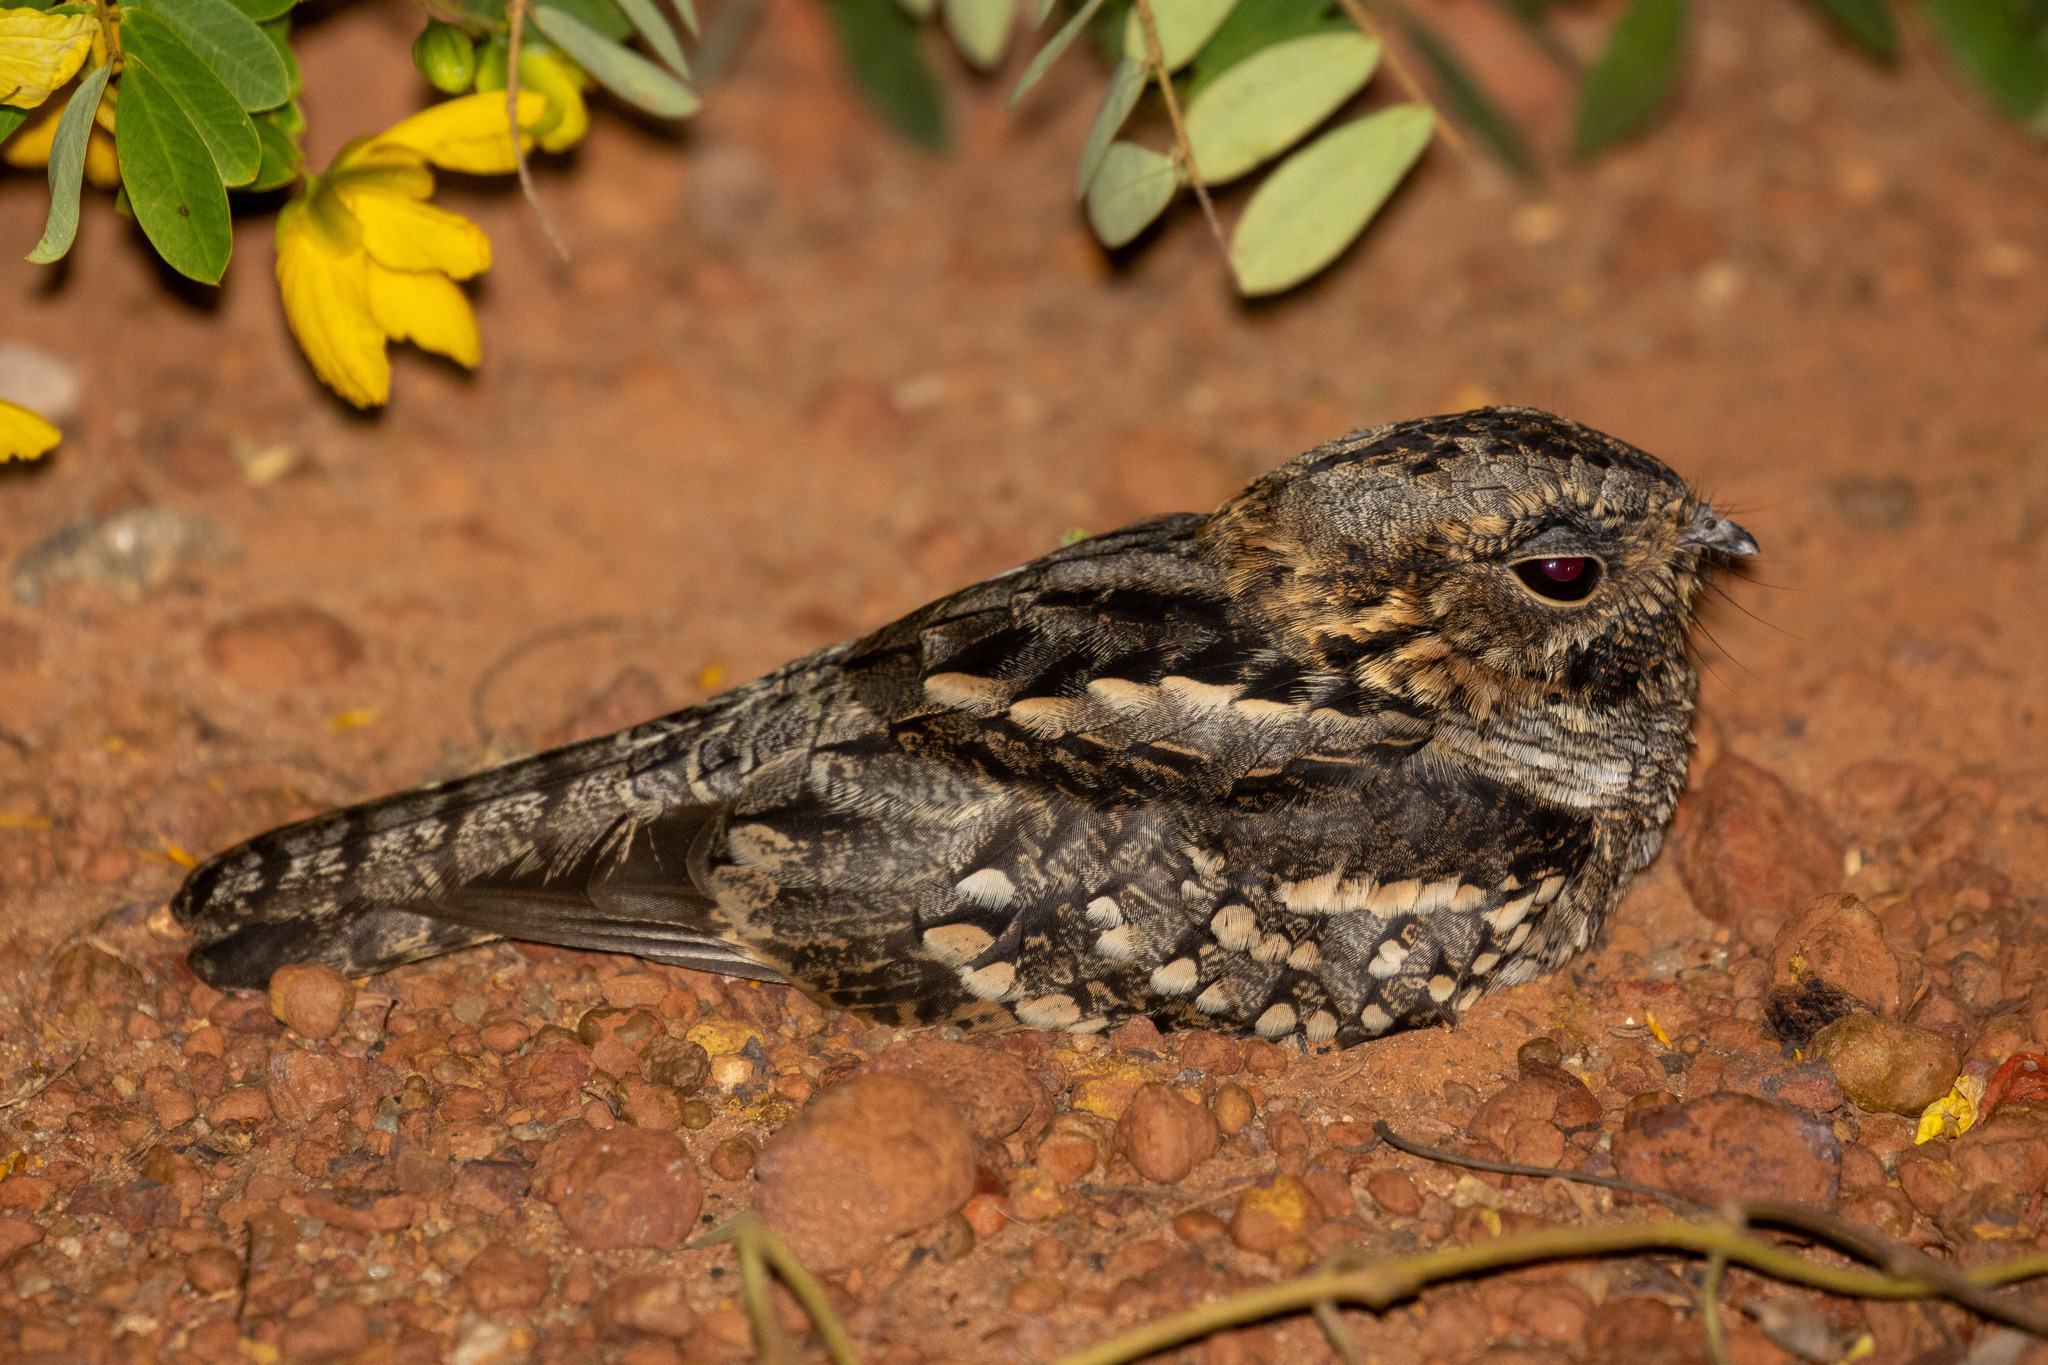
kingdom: Animalia
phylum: Chordata
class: Aves
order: Caprimulgiformes
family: Caprimulgidae
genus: Setopagis
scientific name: Setopagis parvula
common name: Little nightjar
